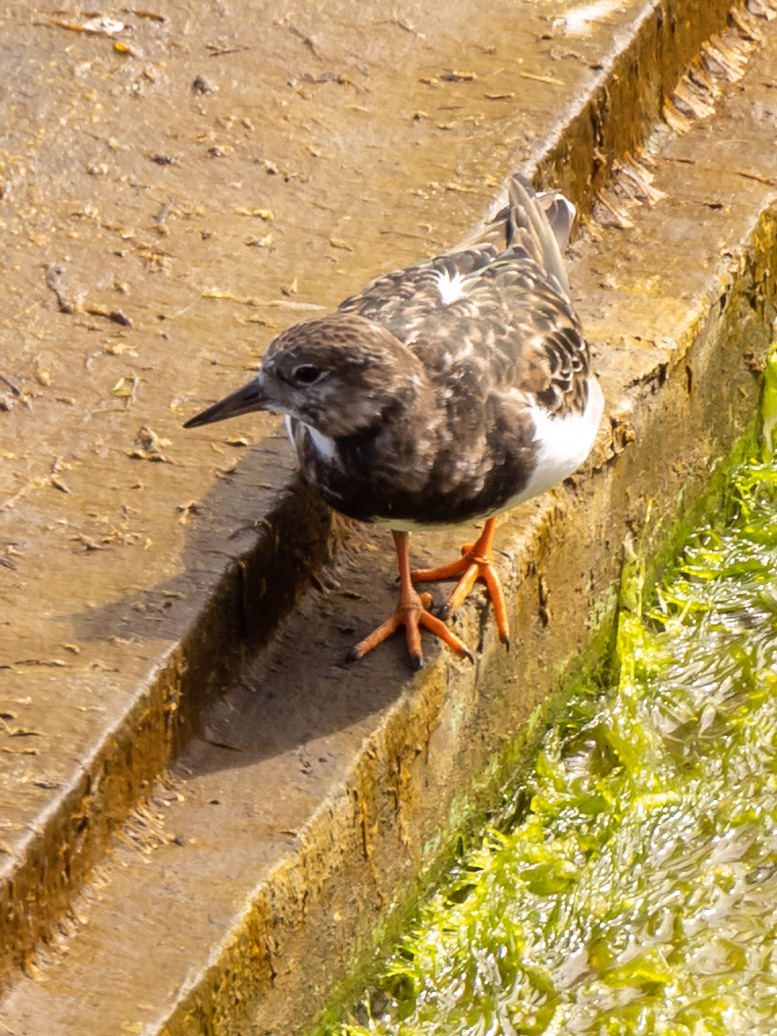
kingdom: Animalia
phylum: Chordata
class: Aves
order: Charadriiformes
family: Scolopacidae
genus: Arenaria
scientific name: Arenaria interpres
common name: Ruddy turnstone
